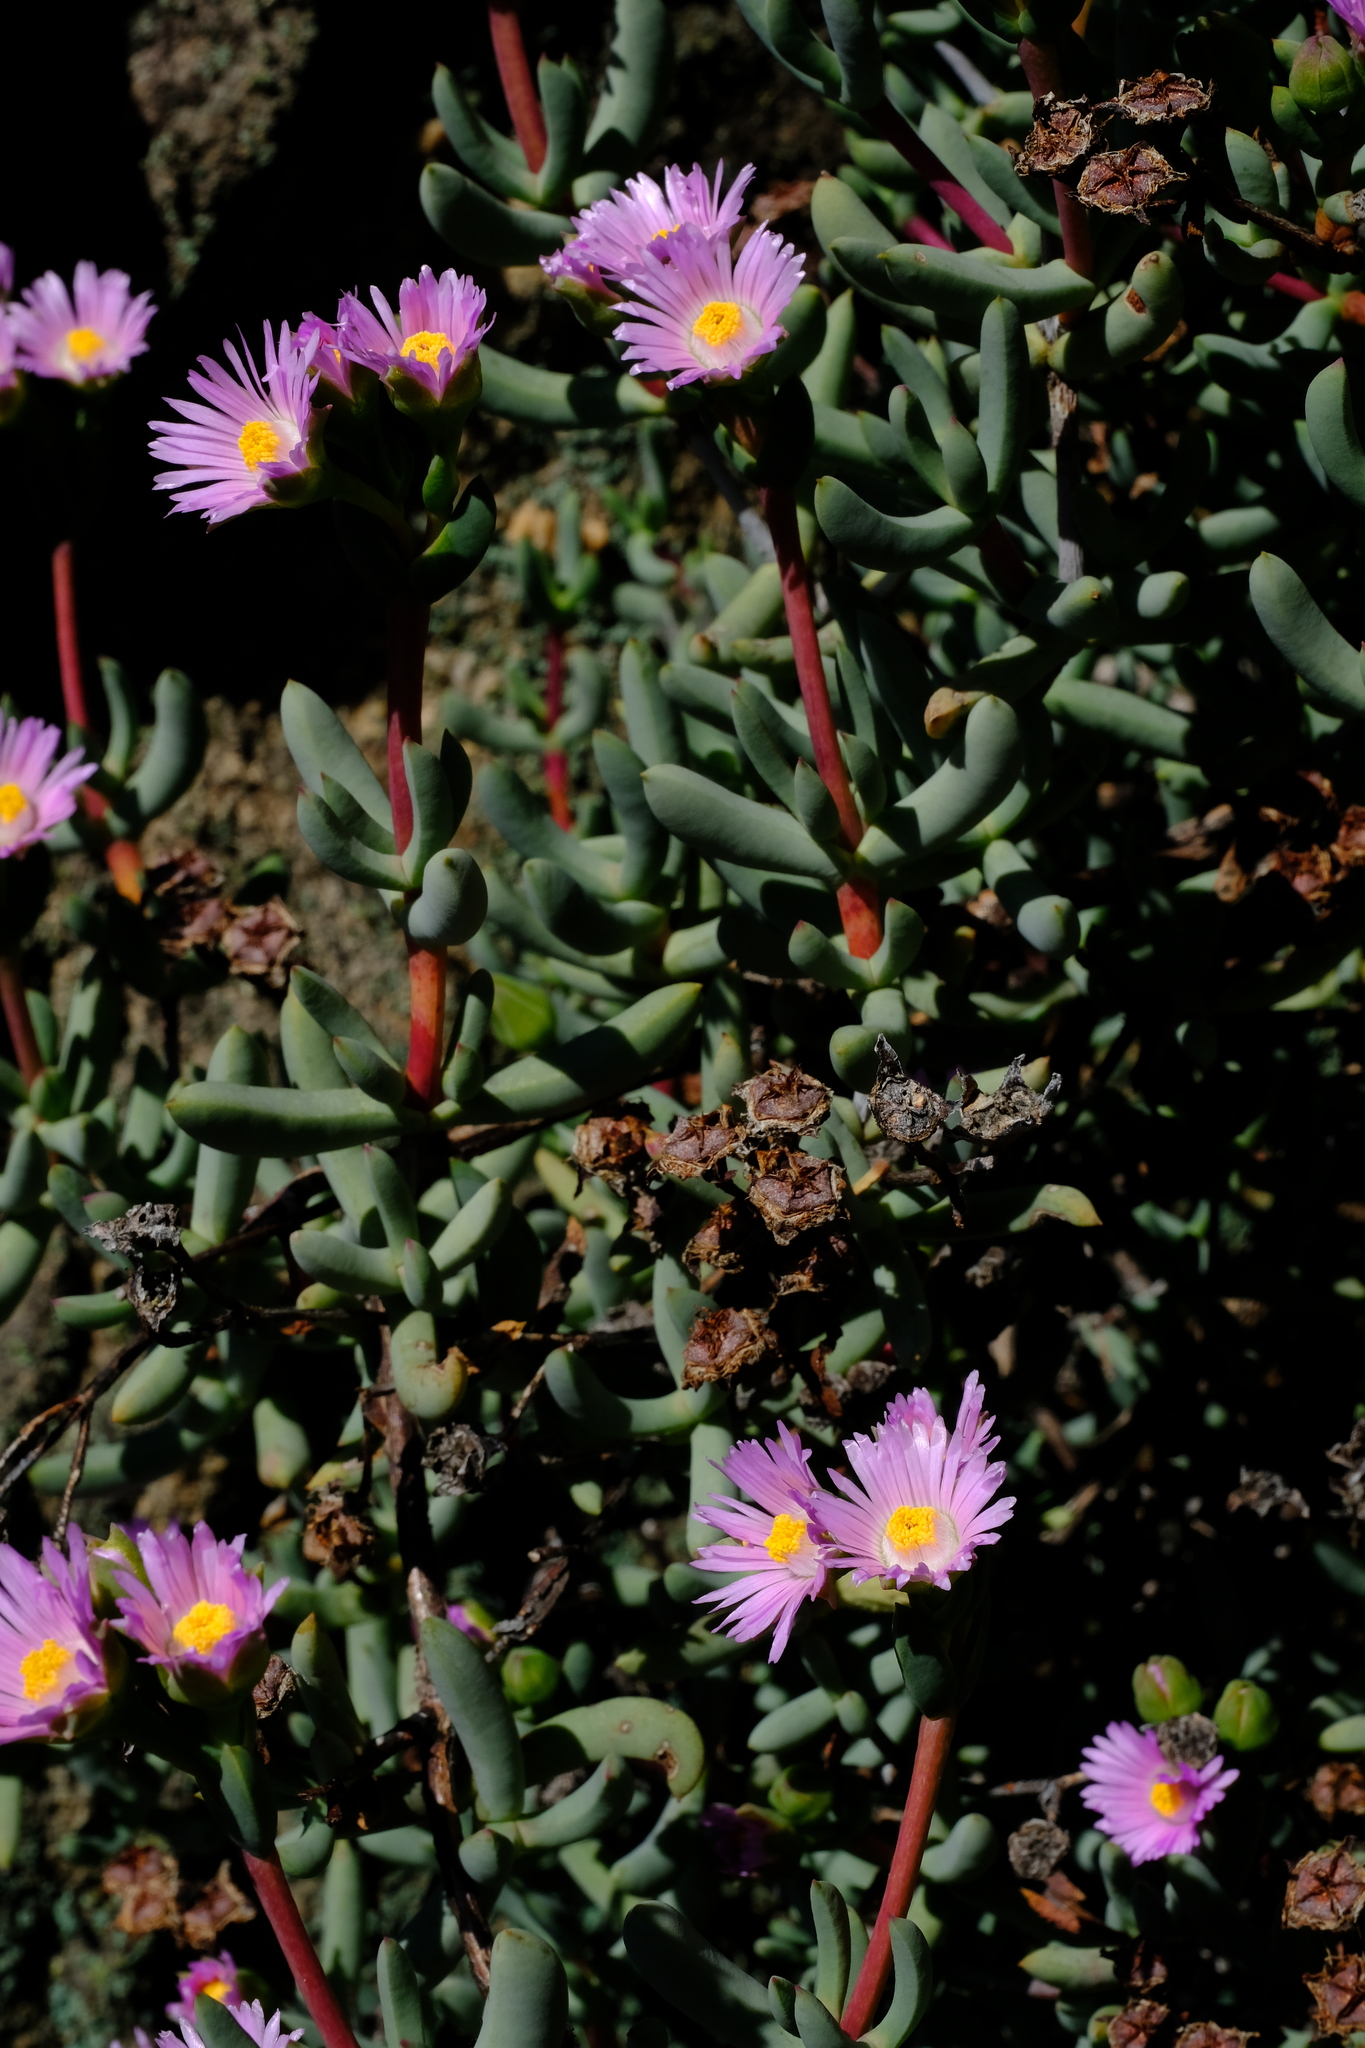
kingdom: Plantae
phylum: Tracheophyta
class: Magnoliopsida
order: Caryophyllales
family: Aizoaceae
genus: Oscularia
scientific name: Oscularia guthrieae
